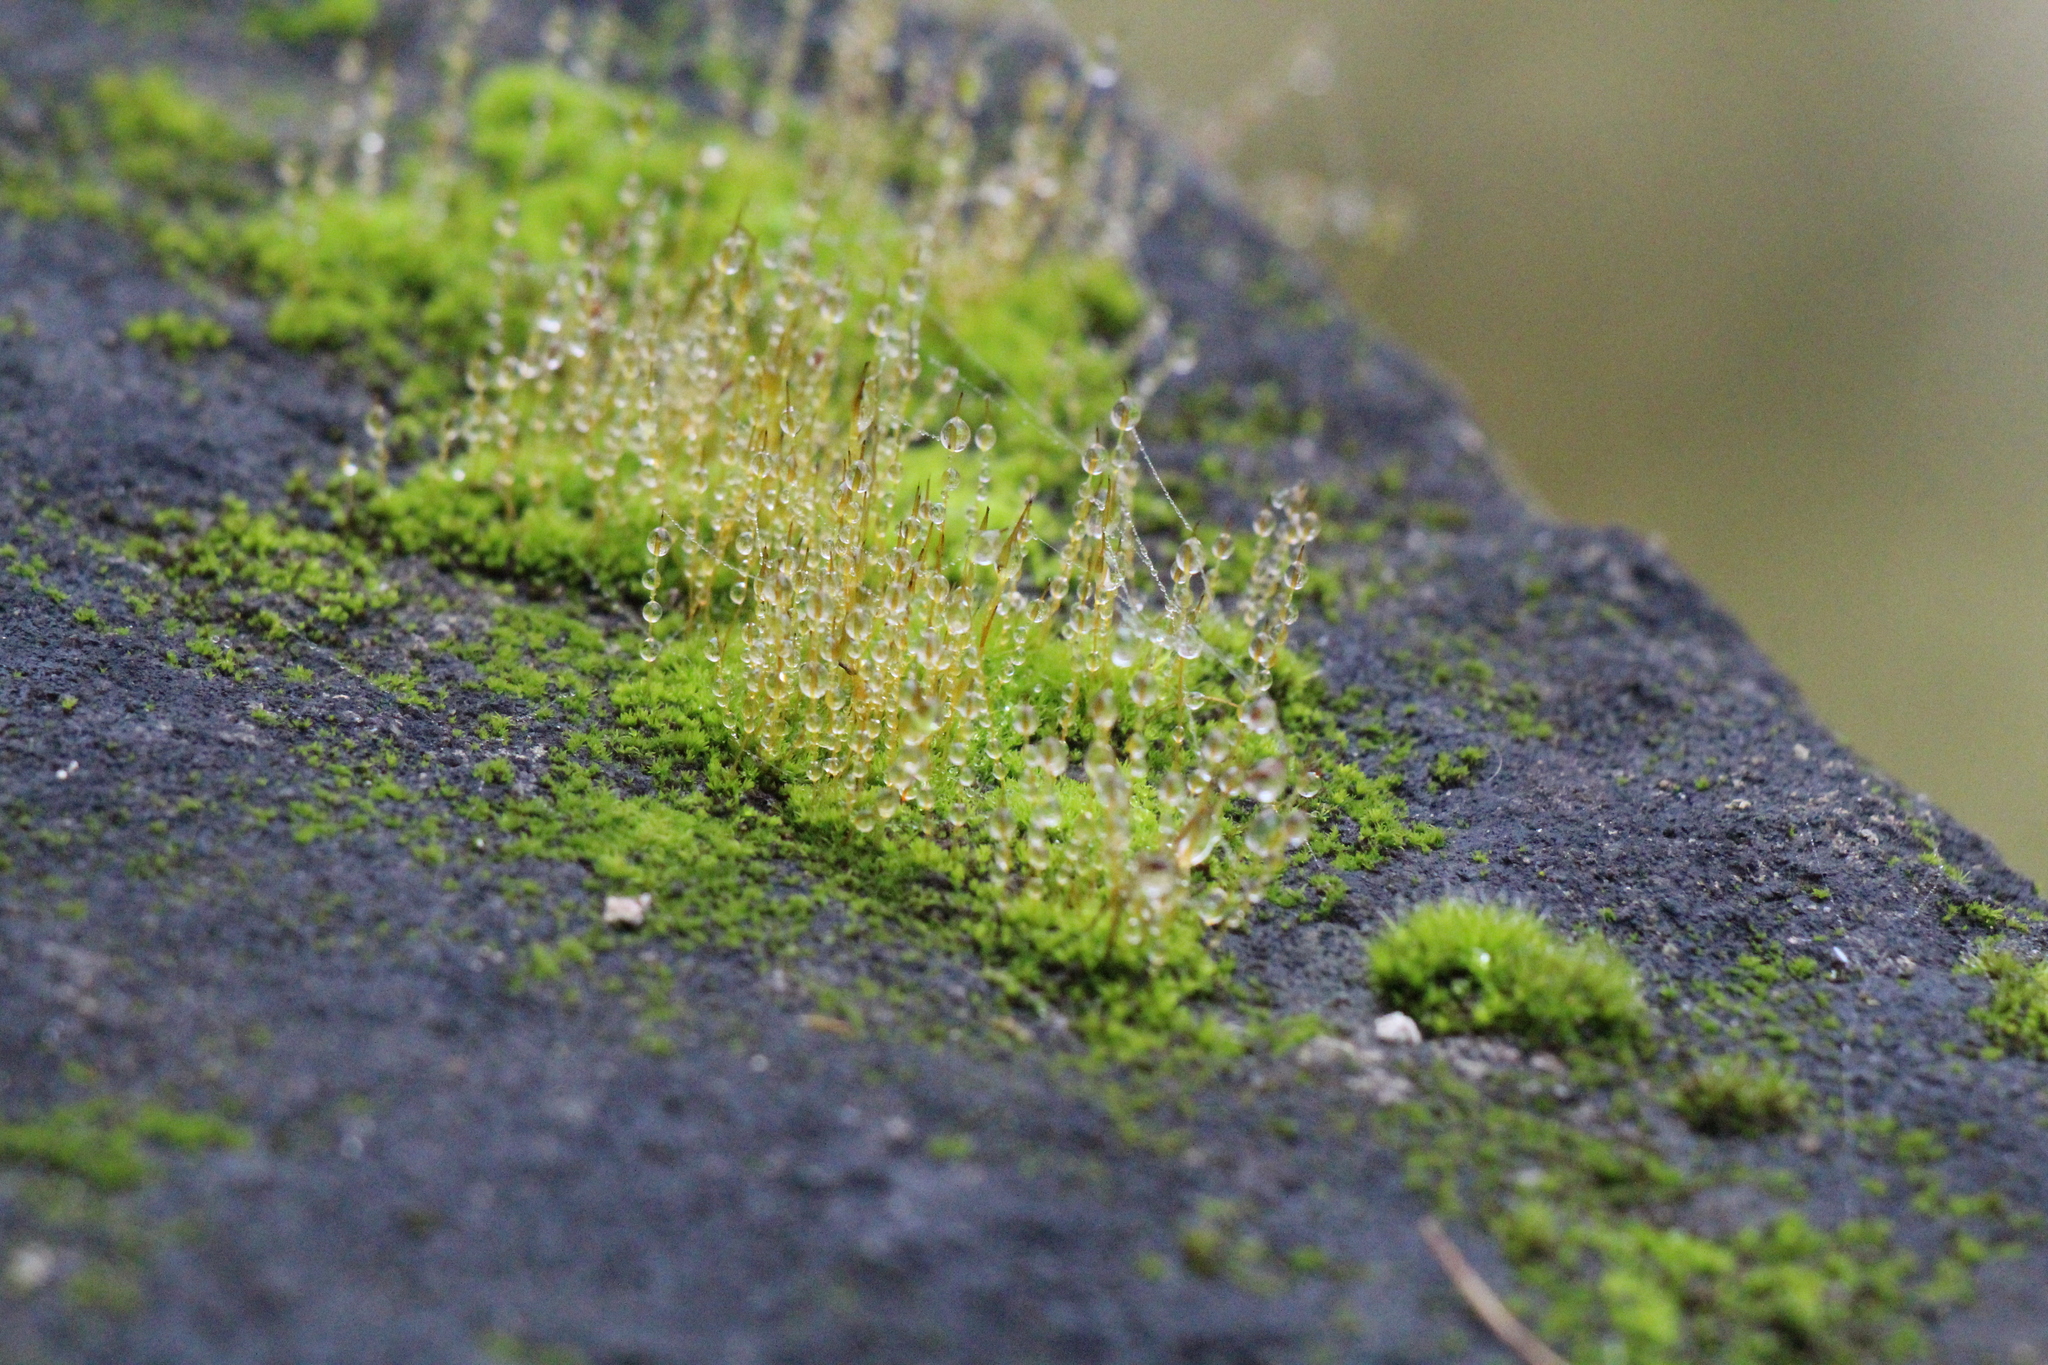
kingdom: Plantae
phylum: Bryophyta
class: Bryopsida
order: Pottiales
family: Pottiaceae
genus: Tortula
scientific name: Tortula muralis
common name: Wall screw-moss
